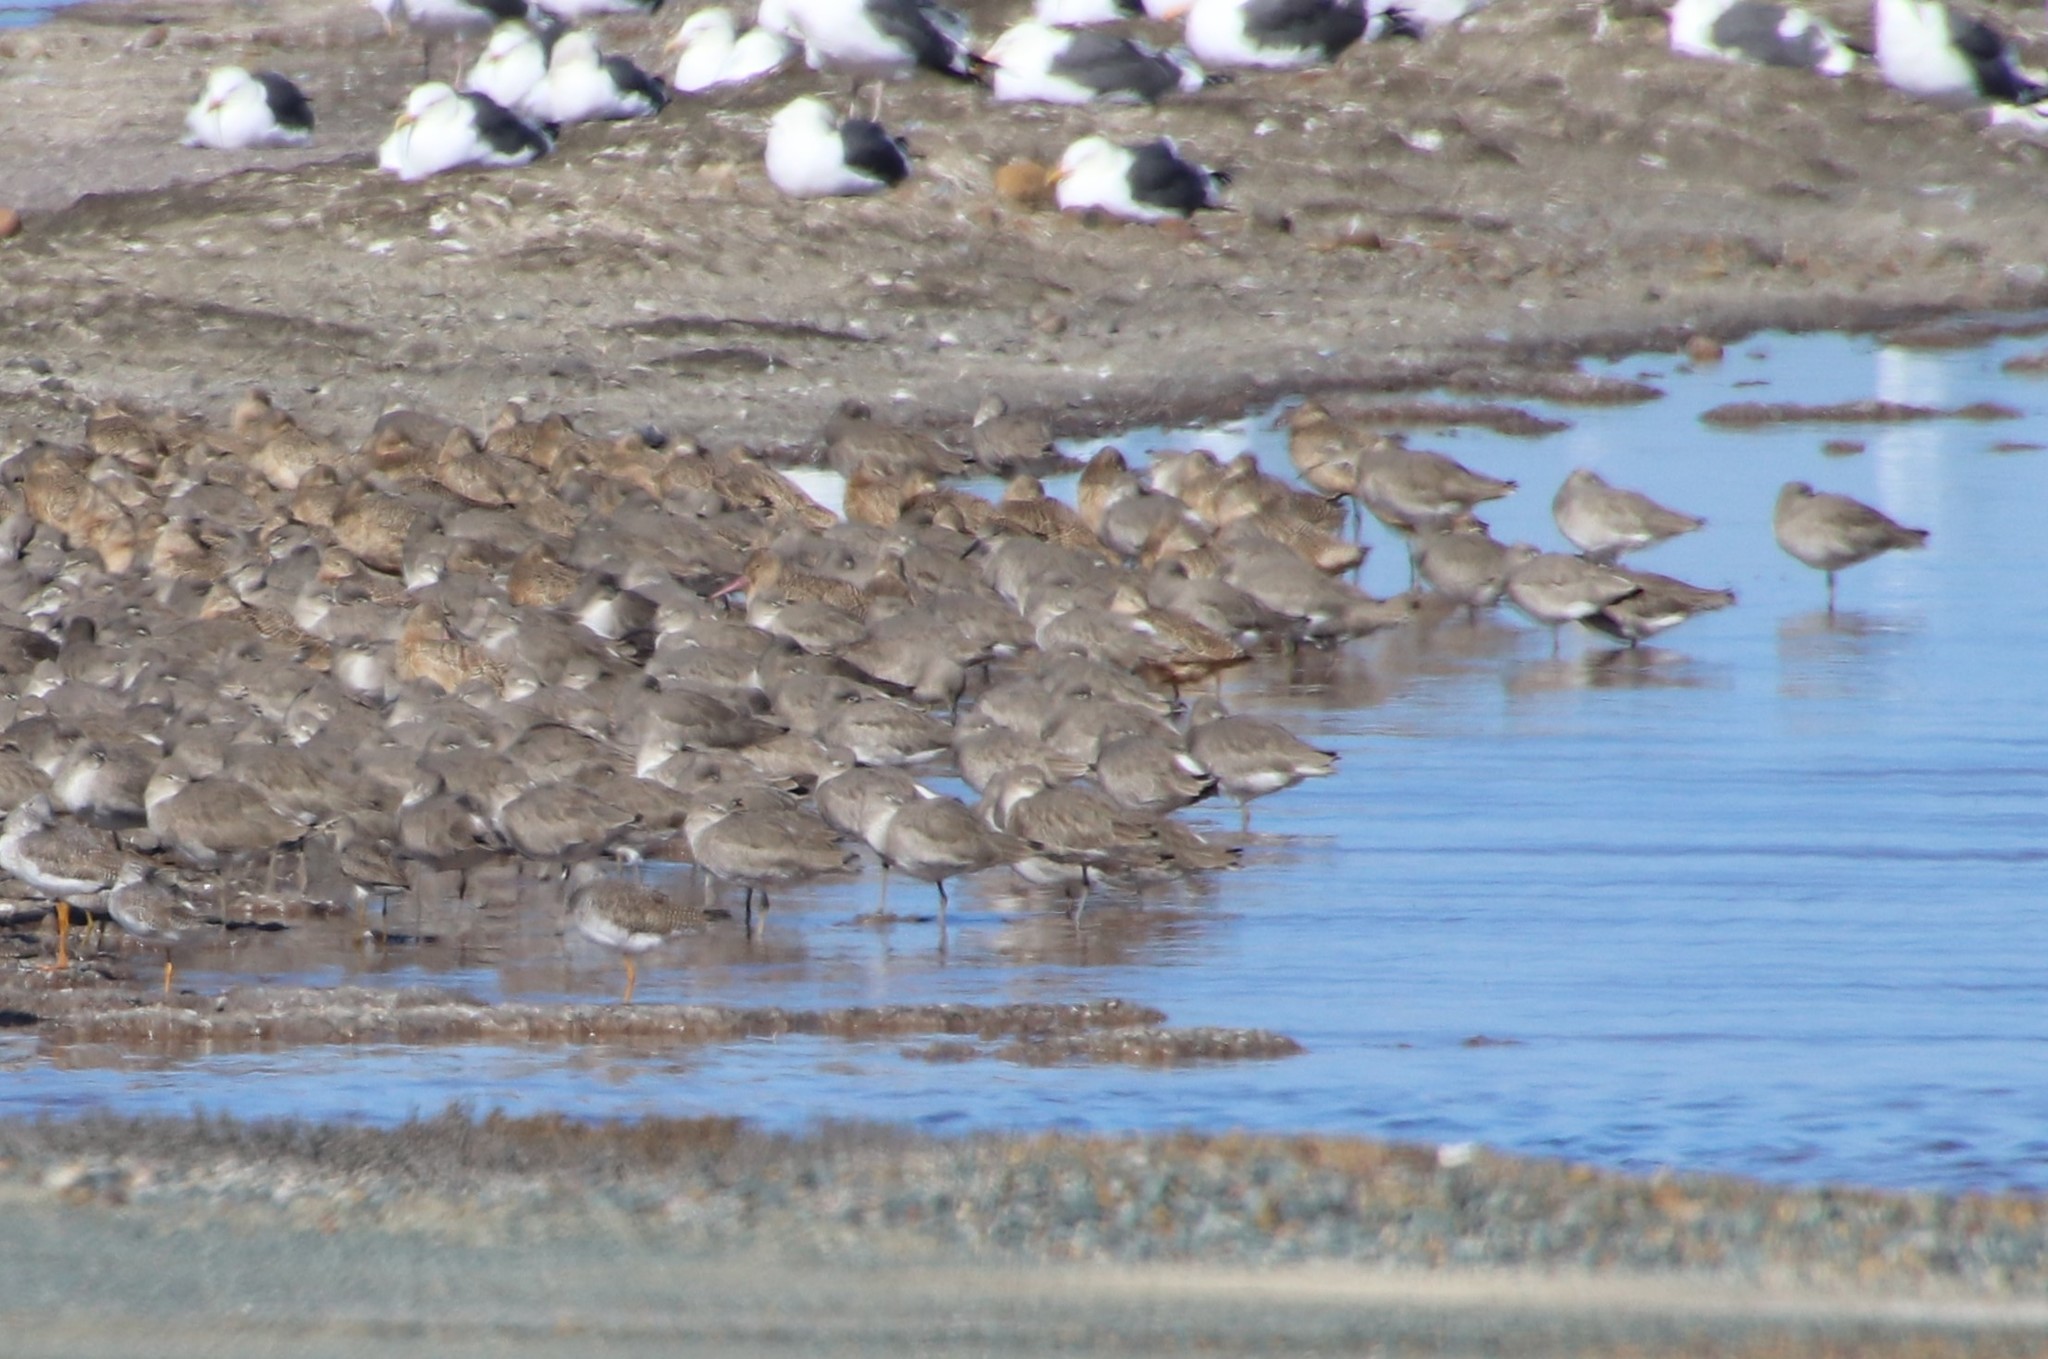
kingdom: Animalia
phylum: Chordata
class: Aves
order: Charadriiformes
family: Scolopacidae
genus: Tringa
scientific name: Tringa semipalmata
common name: Willet
